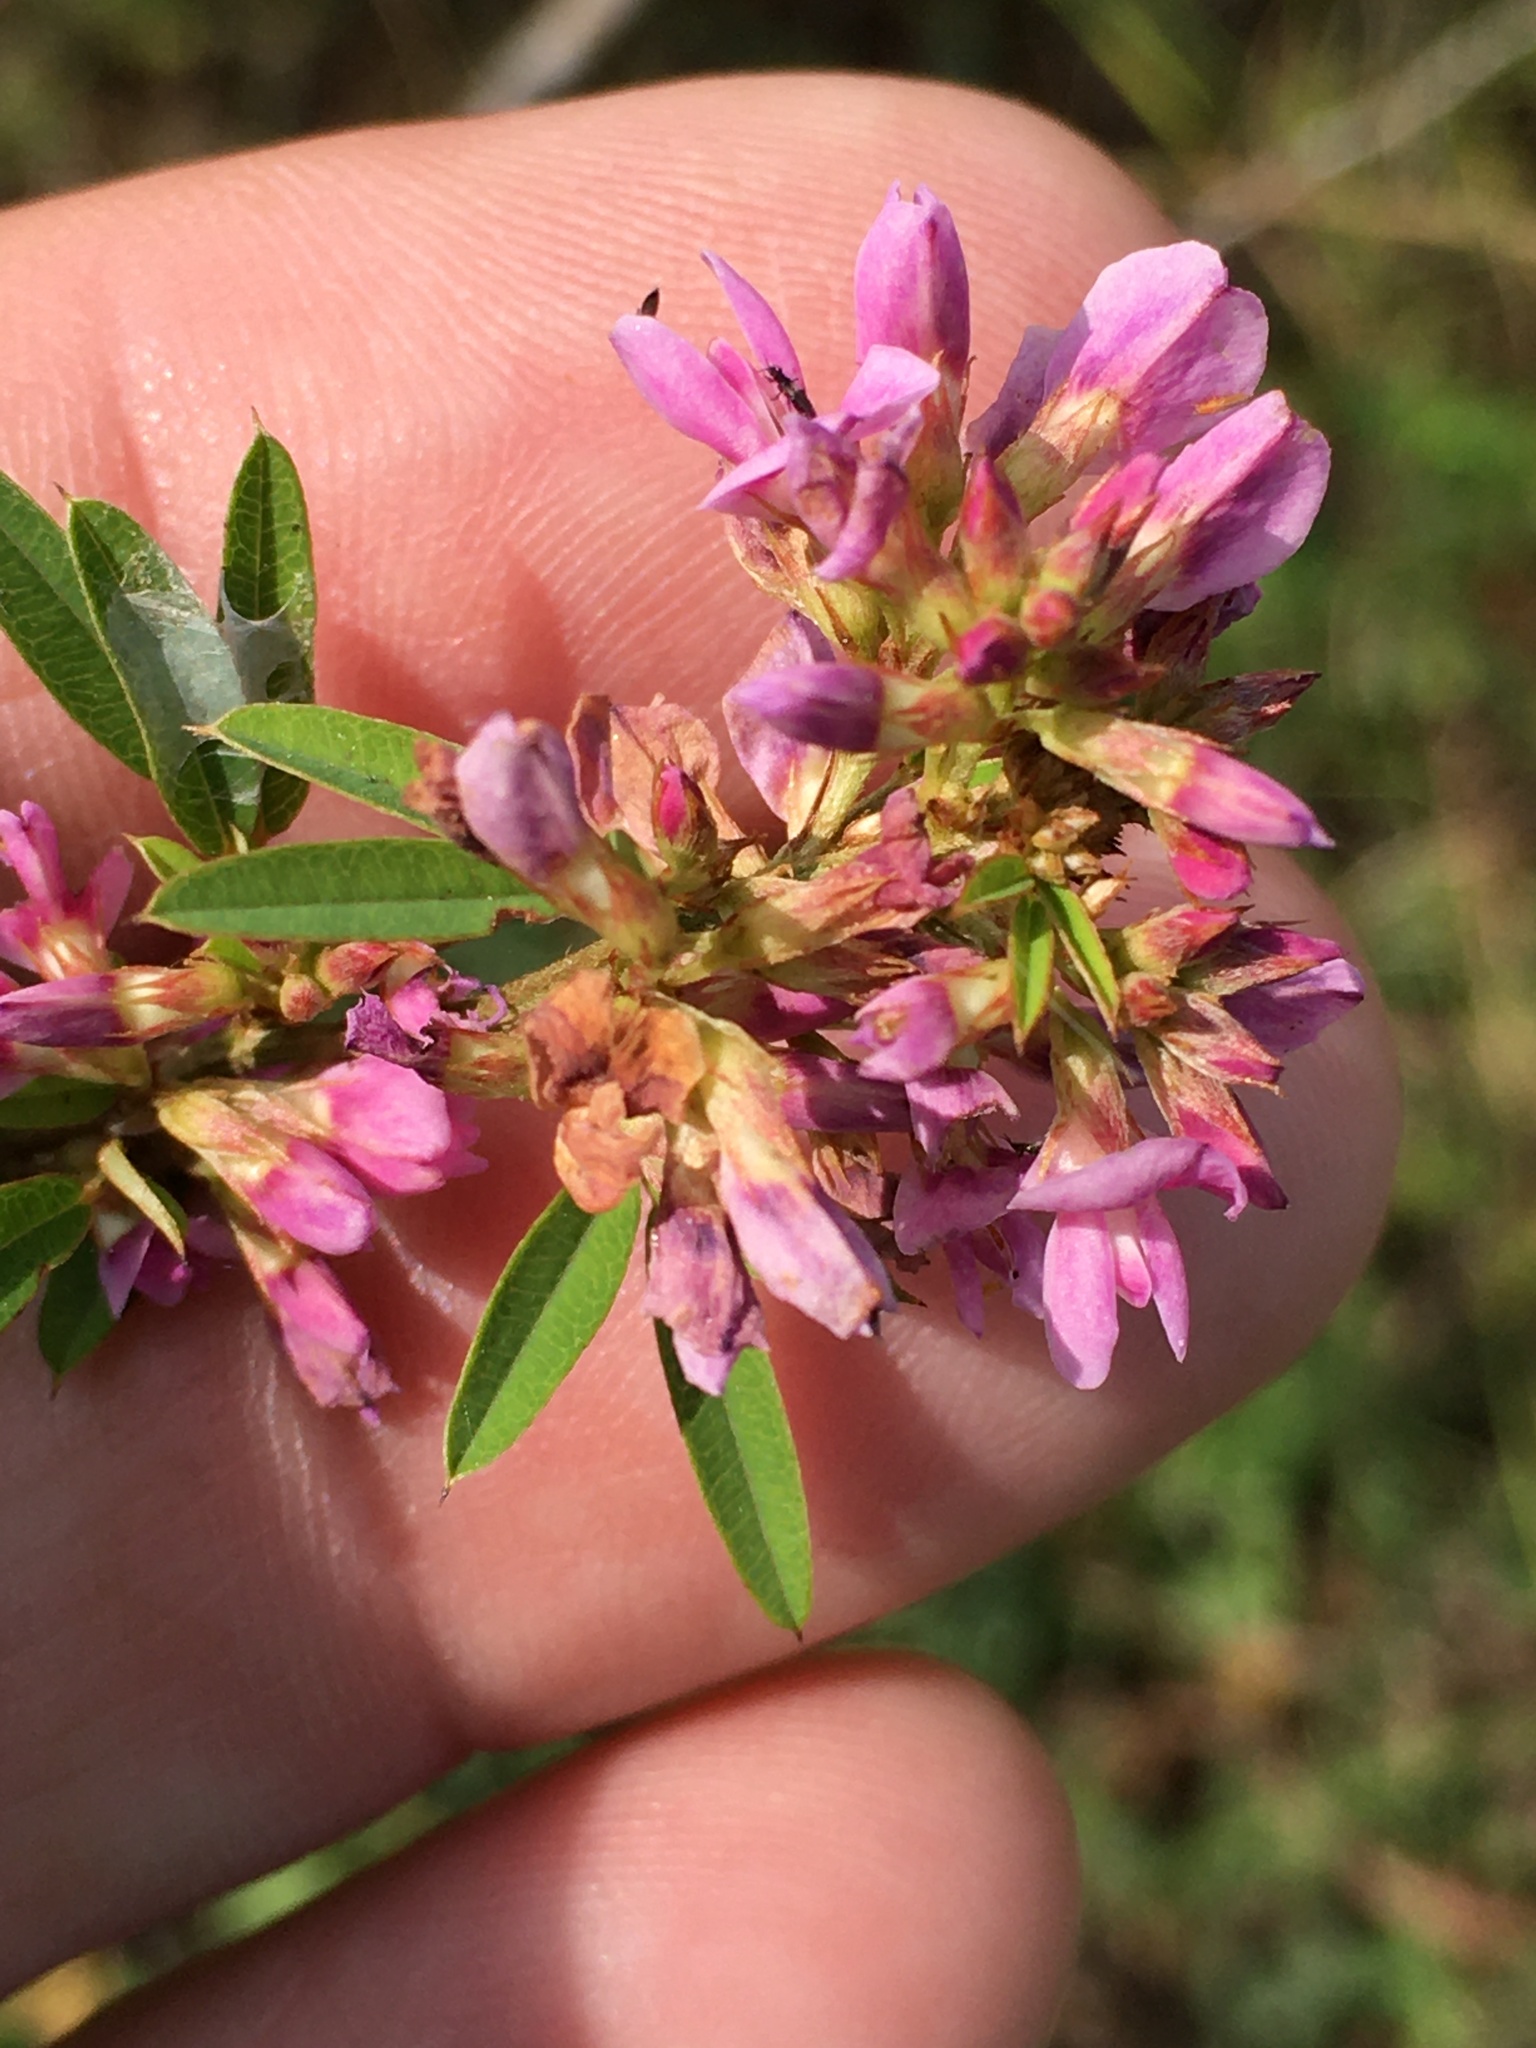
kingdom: Plantae
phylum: Tracheophyta
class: Magnoliopsida
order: Fabales
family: Fabaceae
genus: Lespedeza
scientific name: Lespedeza virginica
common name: Slender bush-clover
